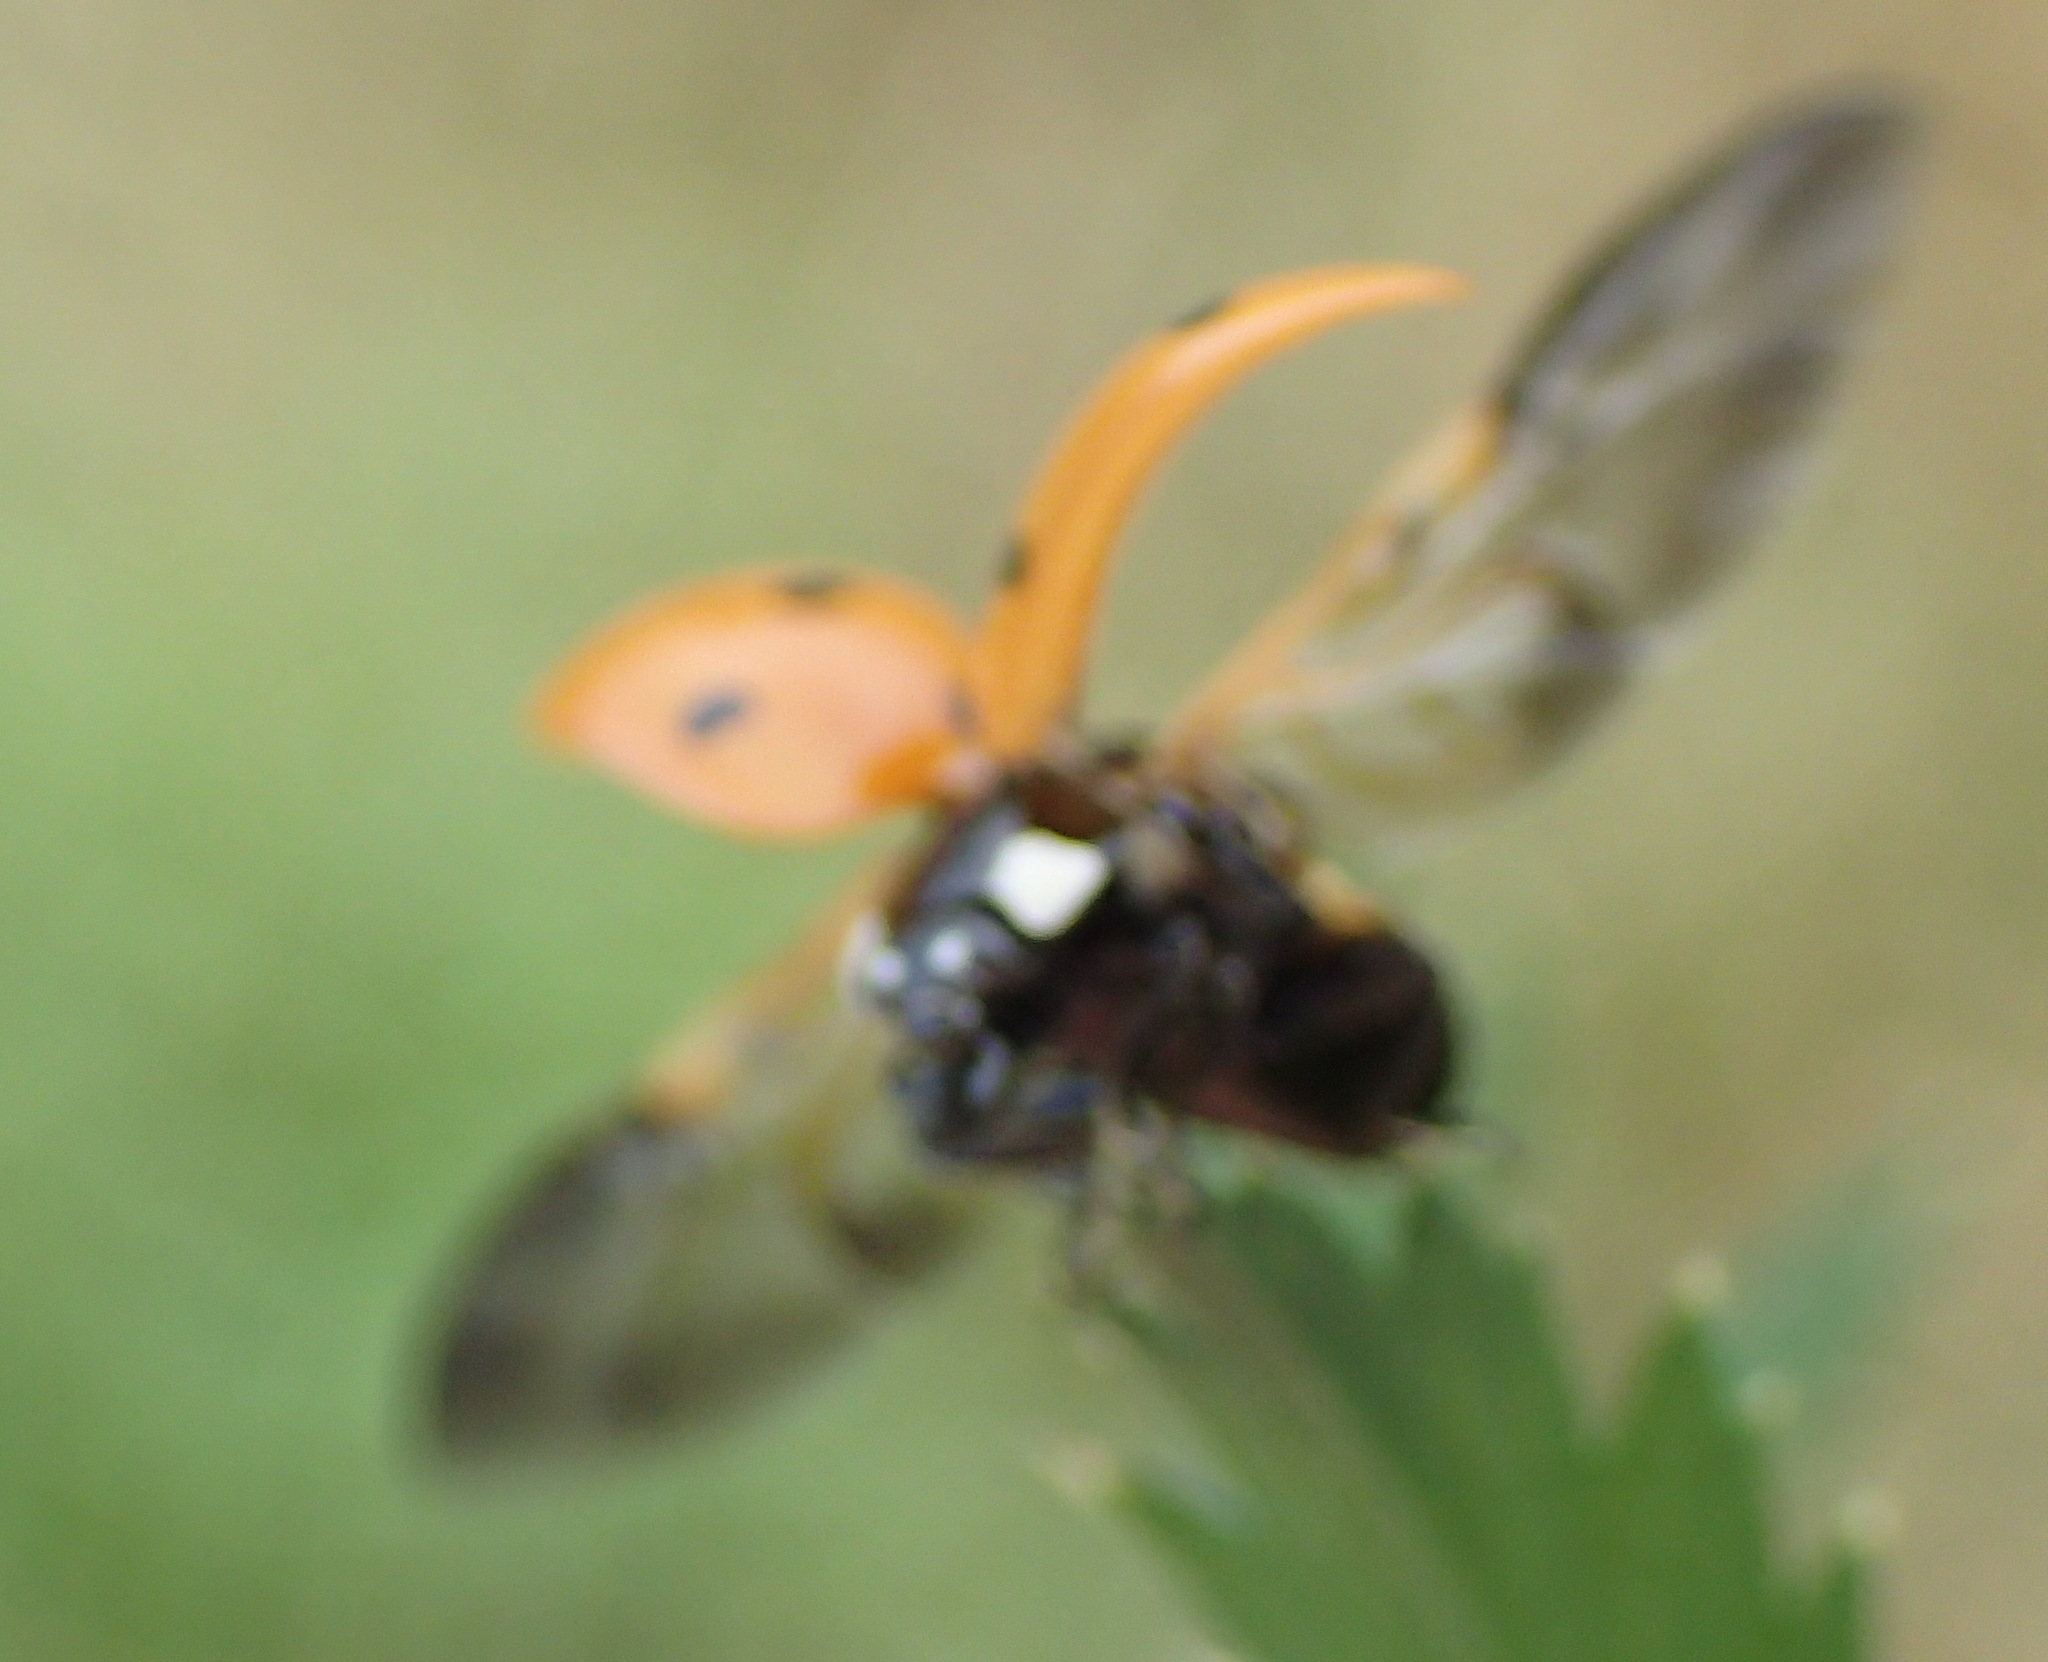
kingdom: Animalia
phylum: Arthropoda
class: Insecta
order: Coleoptera
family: Coccinellidae
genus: Coccinella
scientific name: Coccinella septempunctata
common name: Sevenspotted lady beetle
